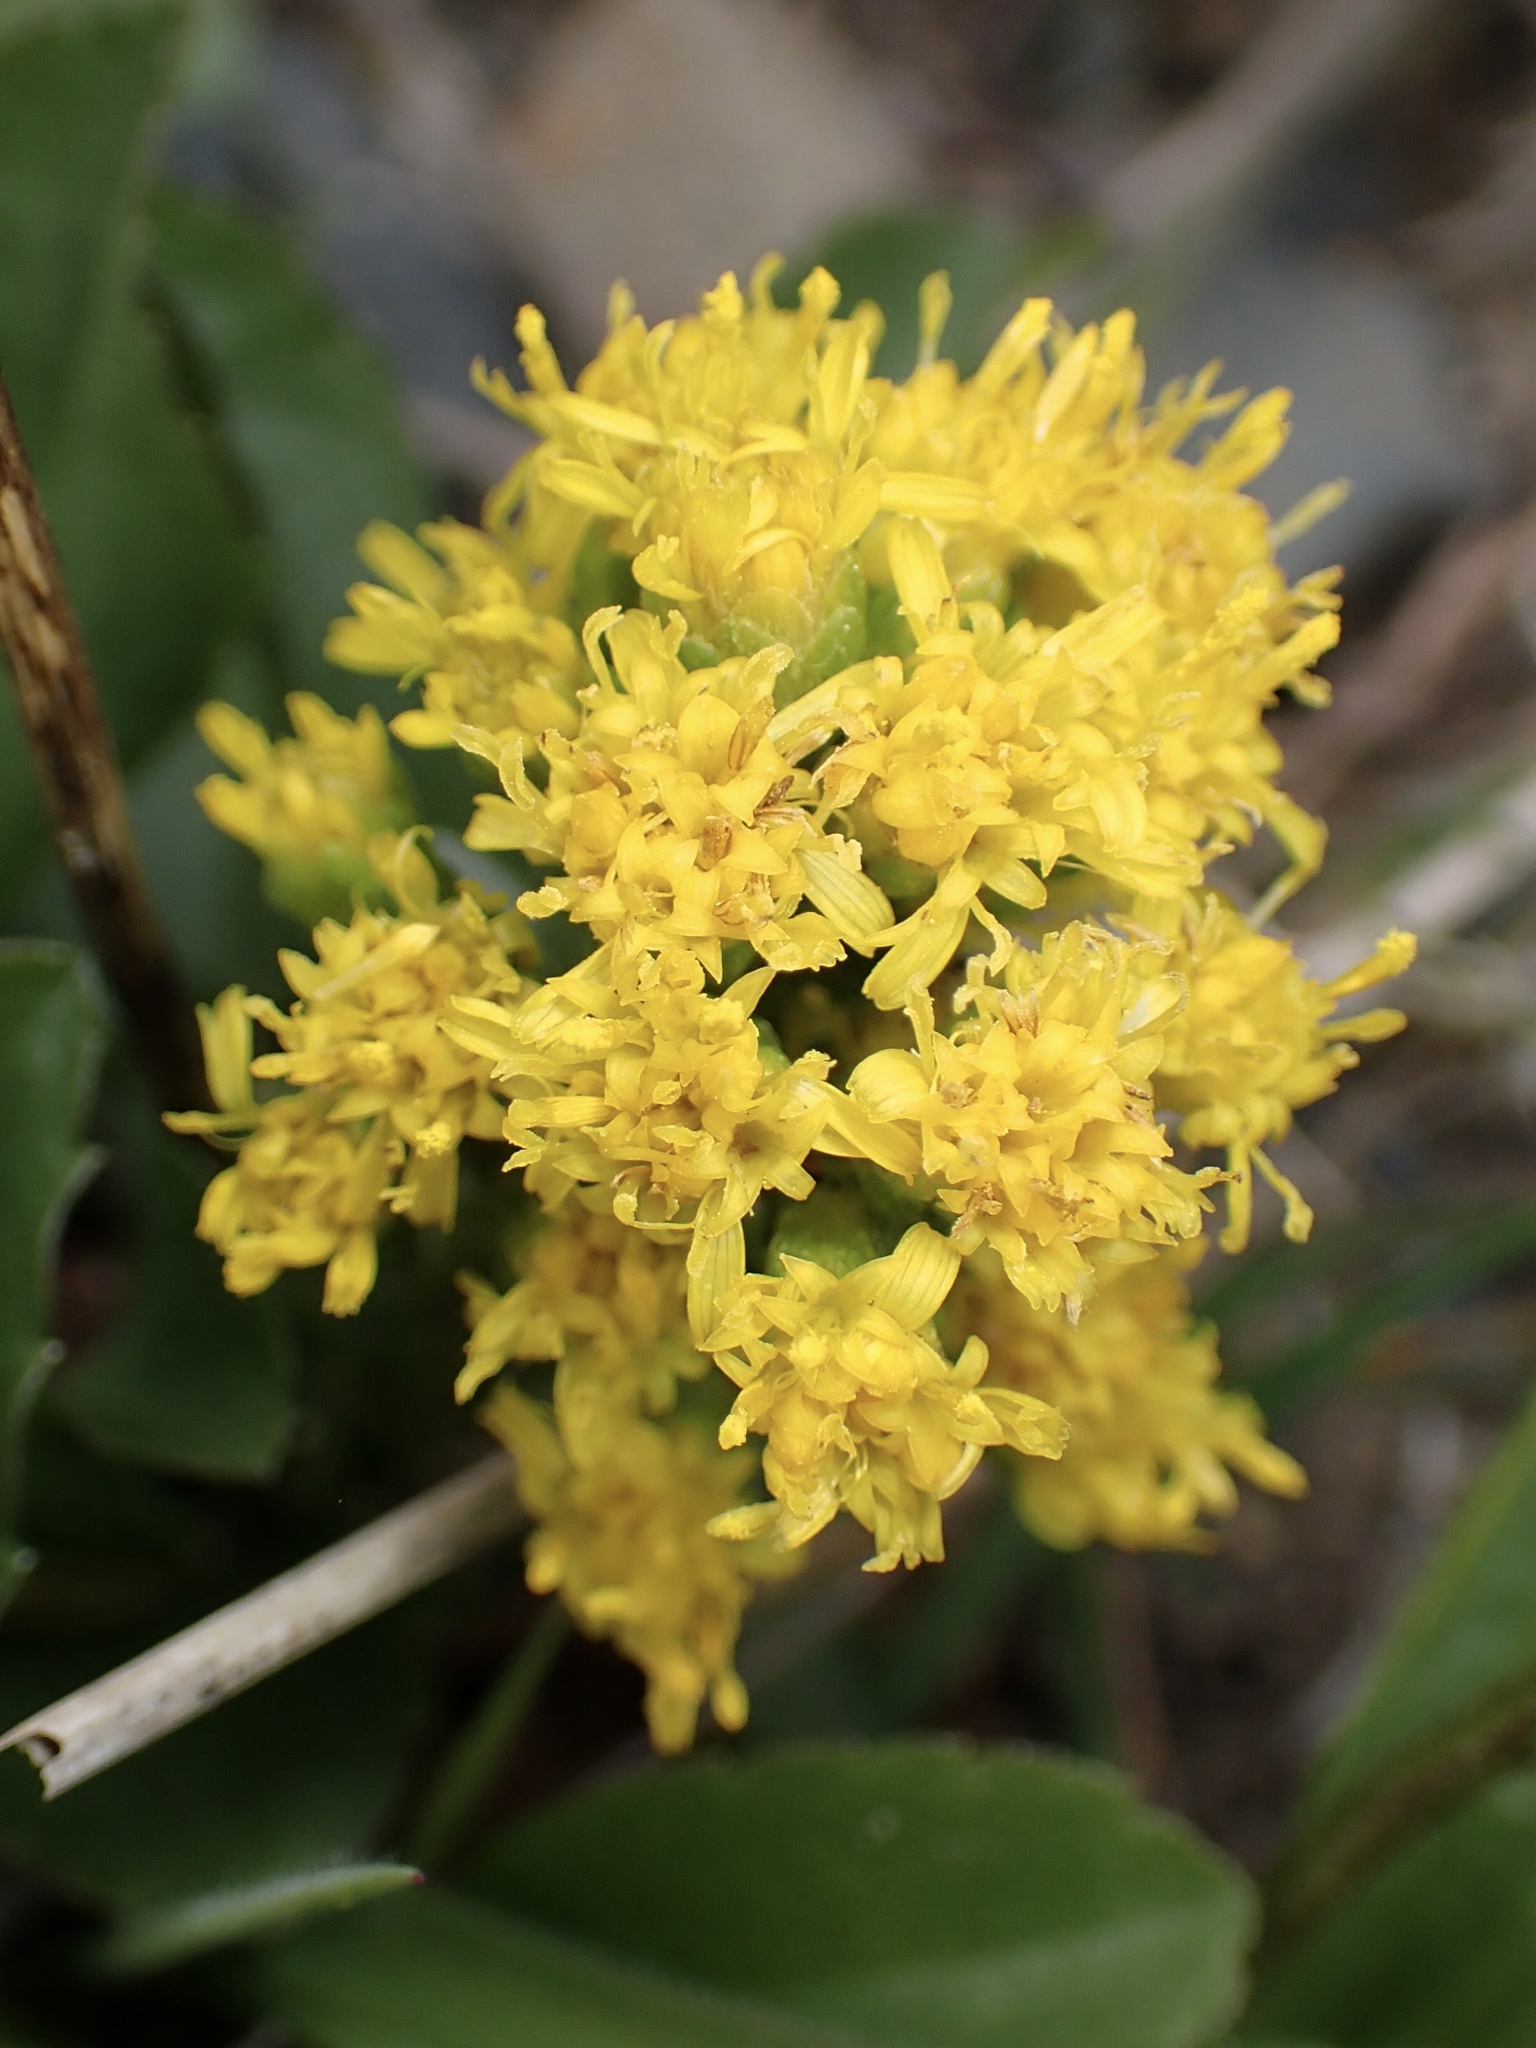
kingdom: Plantae
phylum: Tracheophyta
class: Magnoliopsida
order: Asterales
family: Asteraceae
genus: Solidago
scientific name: Solidago spathulata
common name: Coast goldenrod
